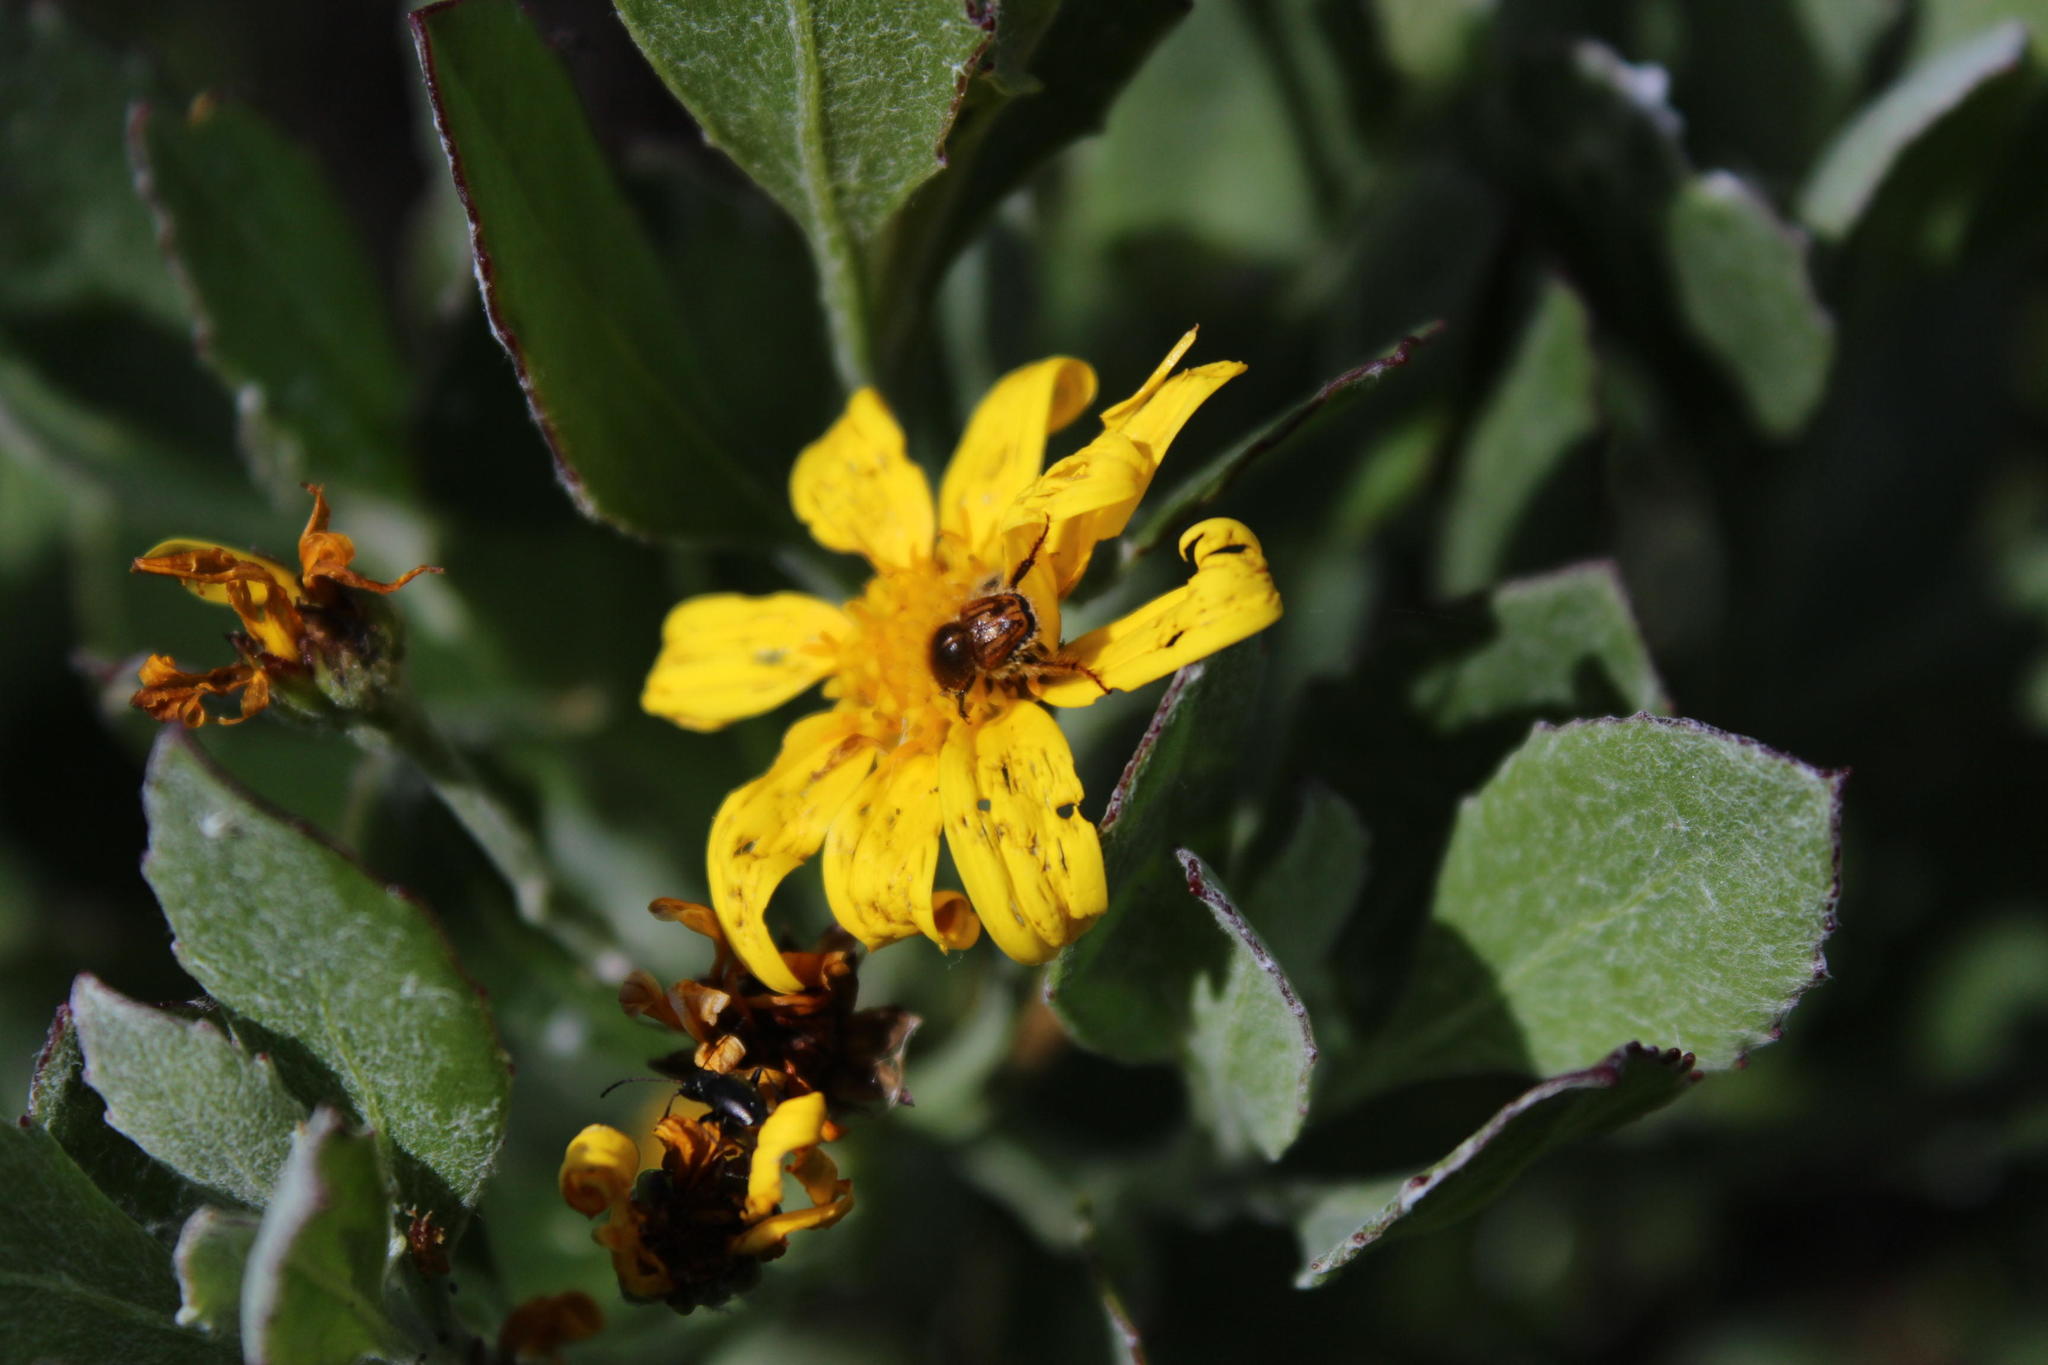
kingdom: Plantae
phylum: Tracheophyta
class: Magnoliopsida
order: Asterales
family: Asteraceae
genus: Osteospermum
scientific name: Osteospermum moniliferum
